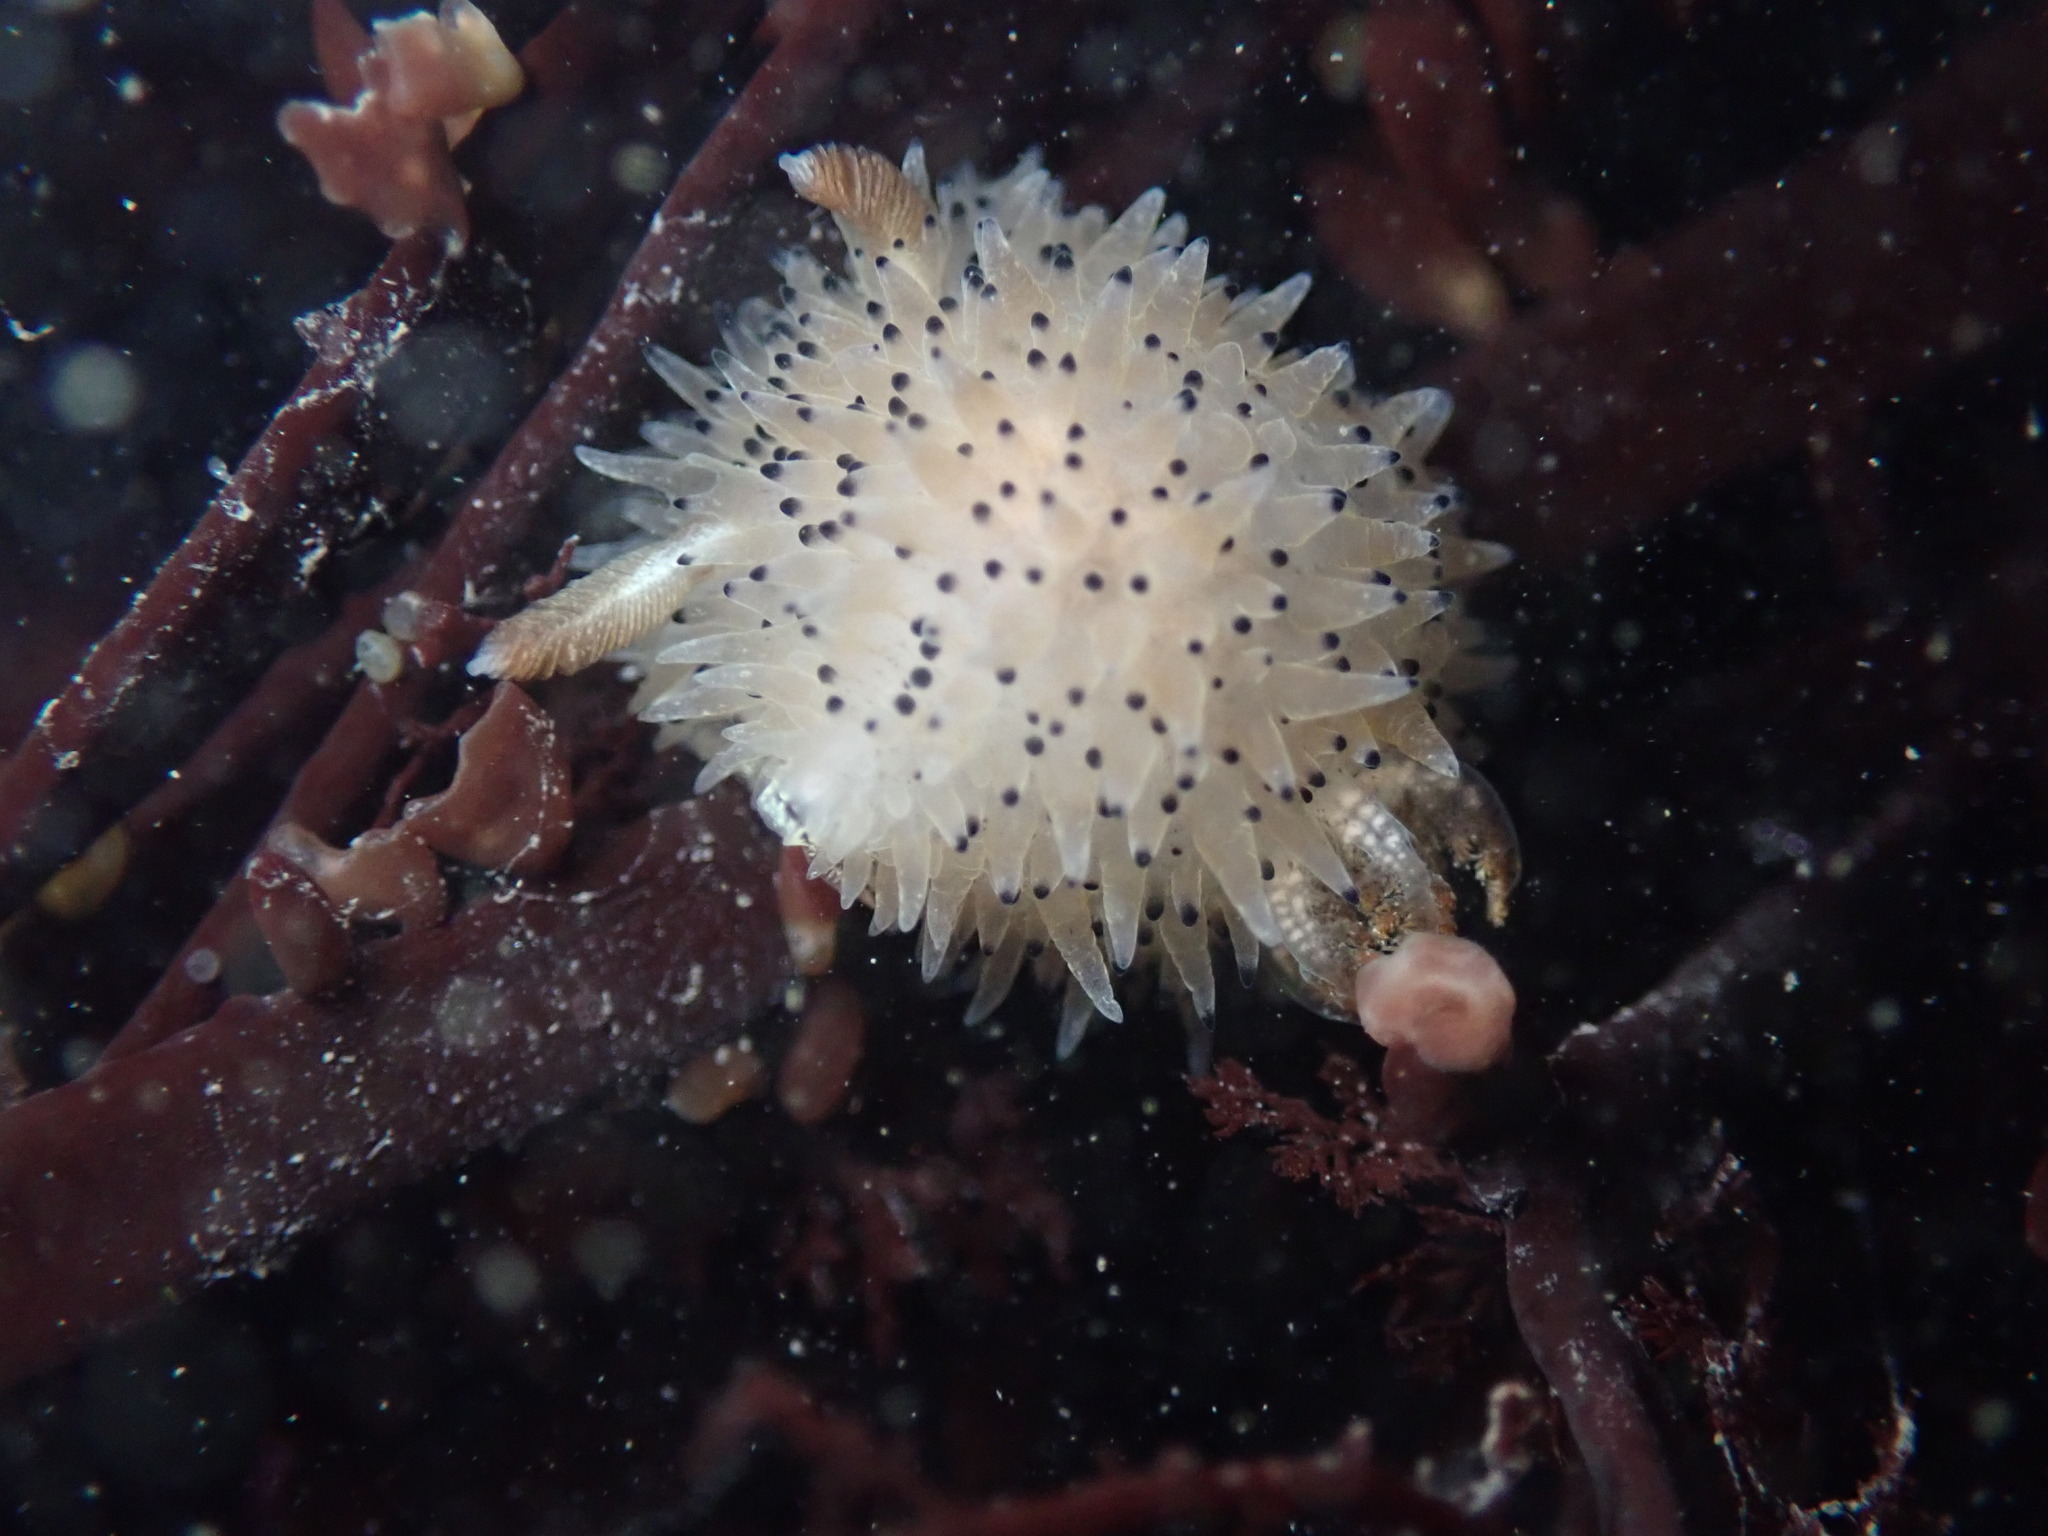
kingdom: Animalia
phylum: Mollusca
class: Gastropoda
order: Nudibranchia
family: Onchidorididae
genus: Acanthodoris
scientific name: Acanthodoris rhodoceras
